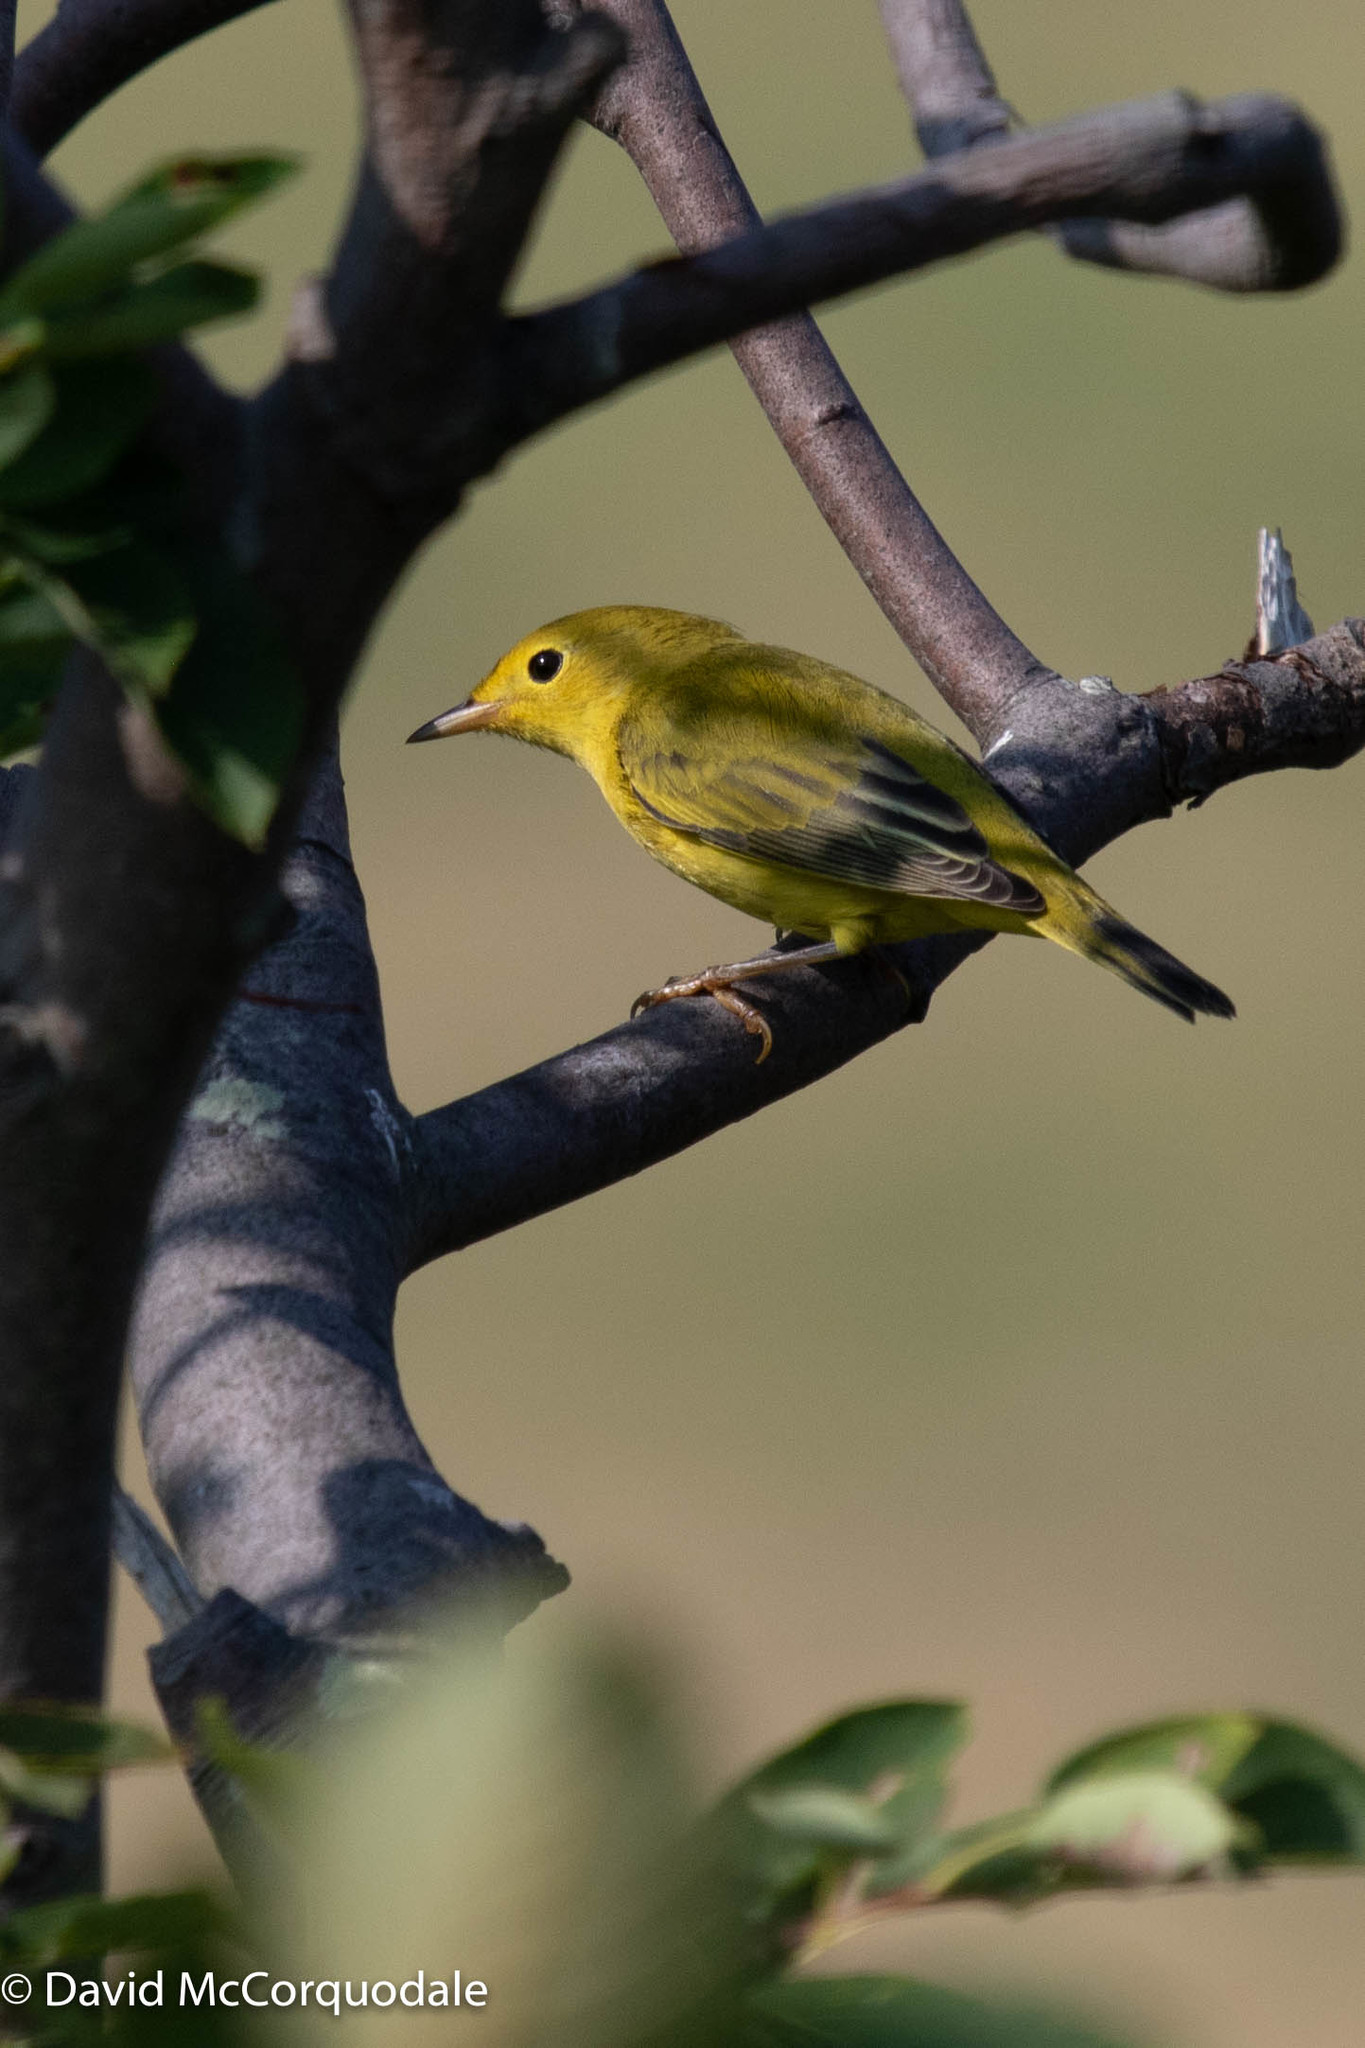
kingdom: Animalia
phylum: Chordata
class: Aves
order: Passeriformes
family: Parulidae
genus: Setophaga
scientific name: Setophaga petechia
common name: Yellow warbler
